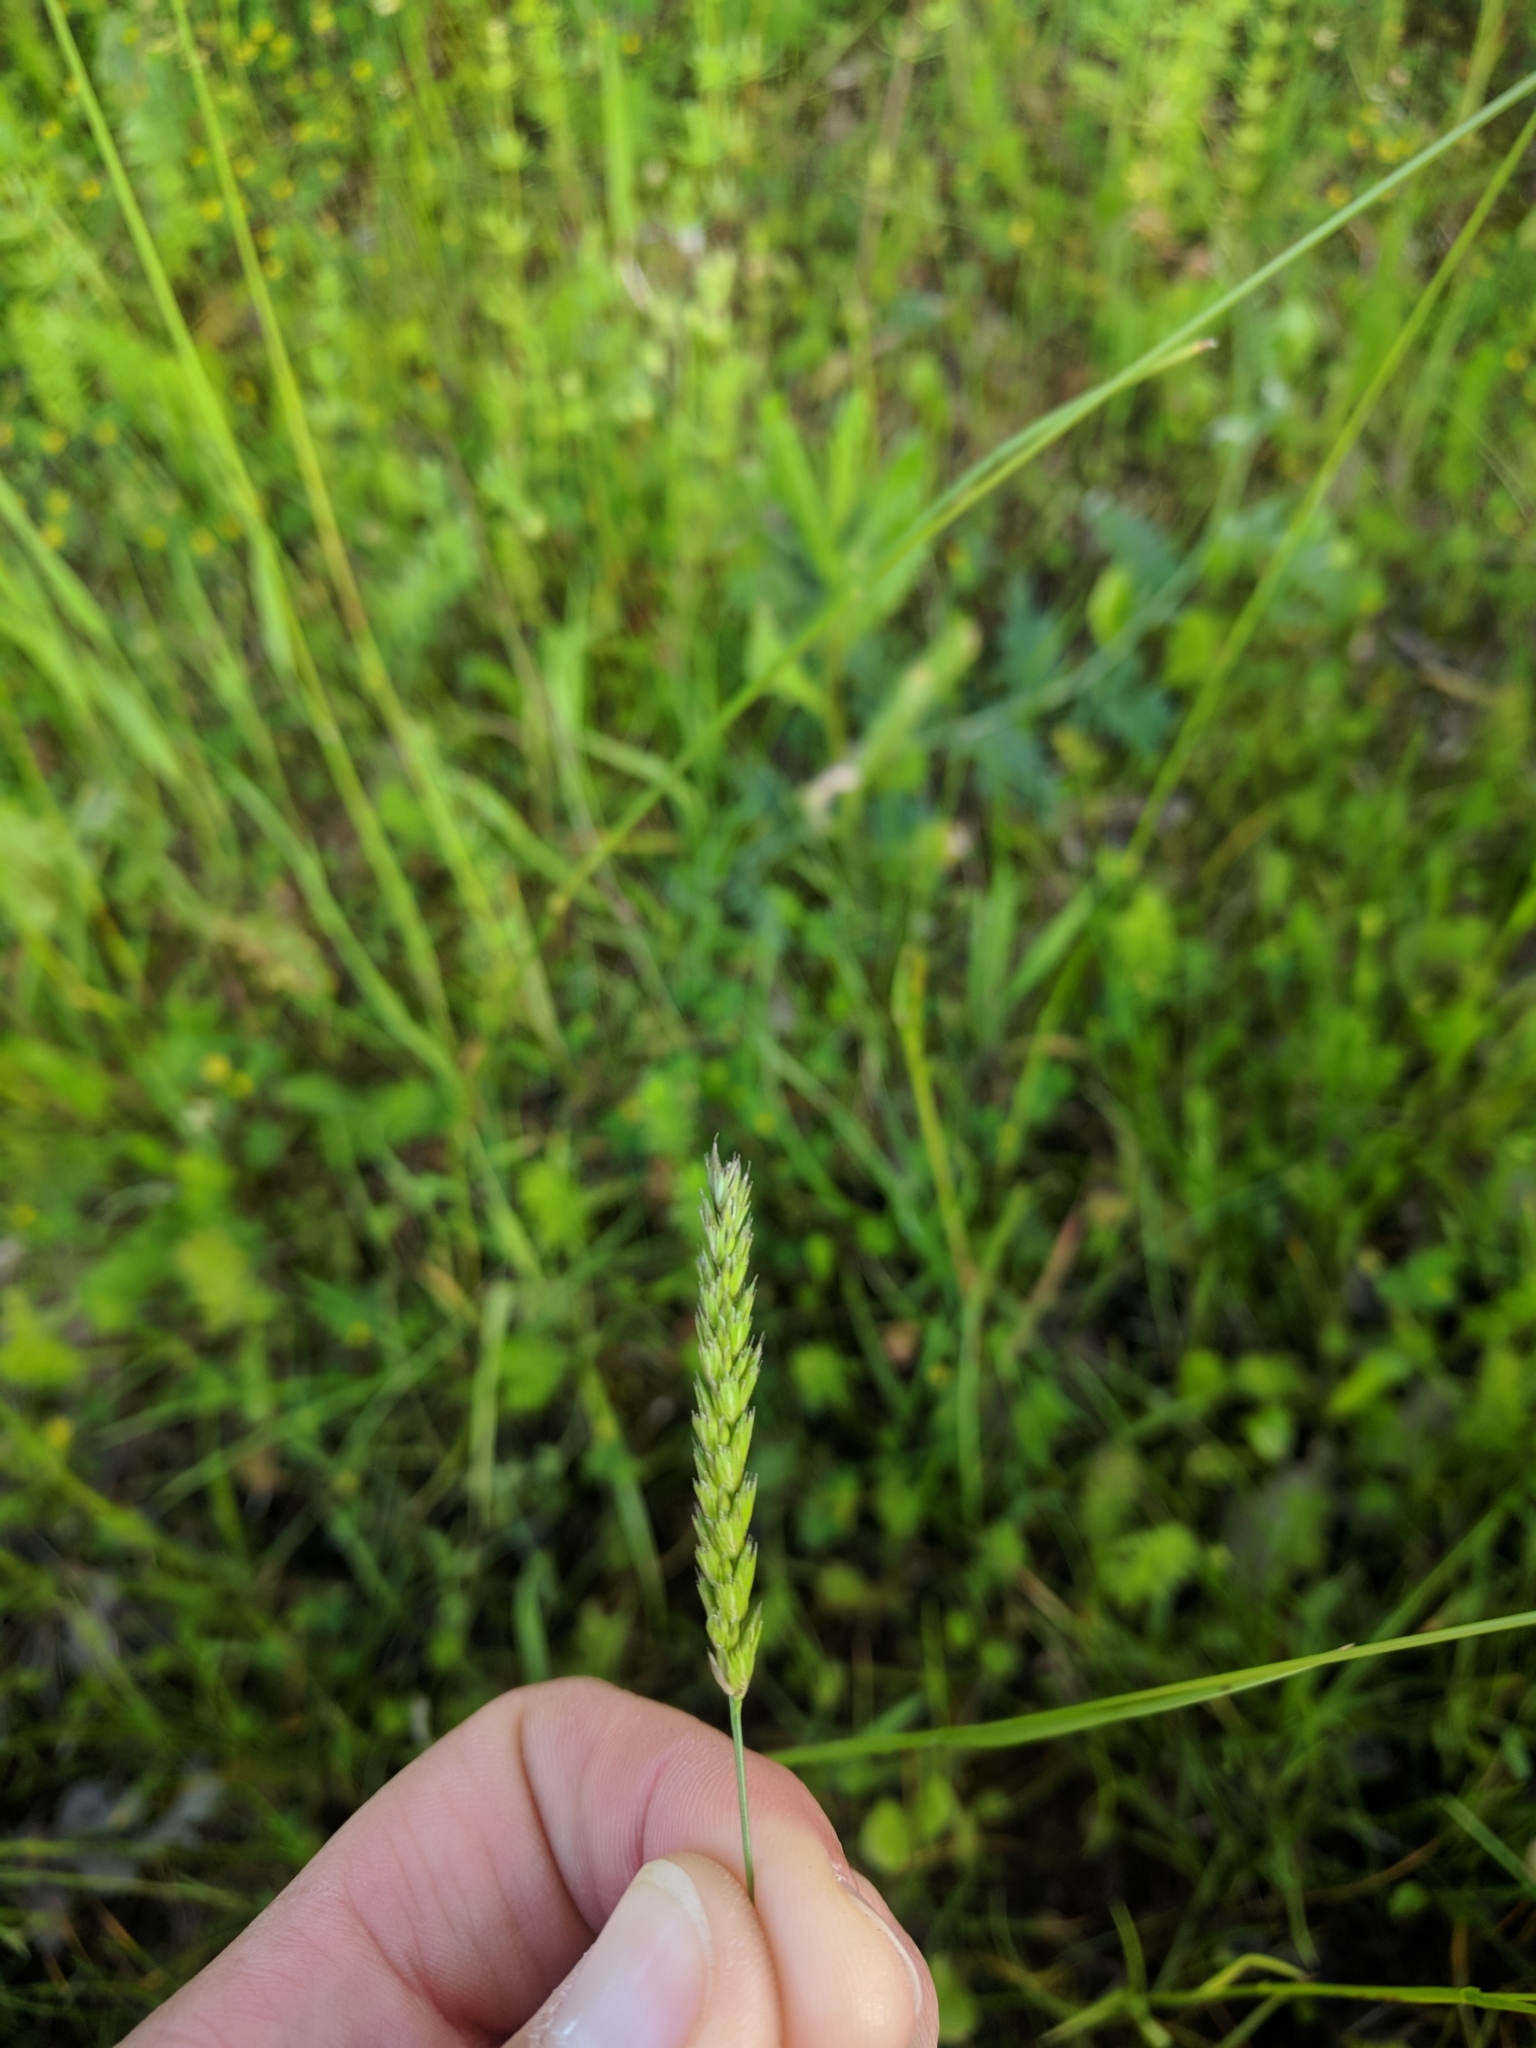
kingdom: Plantae
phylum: Tracheophyta
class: Liliopsida
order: Poales
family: Poaceae
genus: Cynosurus
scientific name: Cynosurus cristatus
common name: Crested dog's-tail
